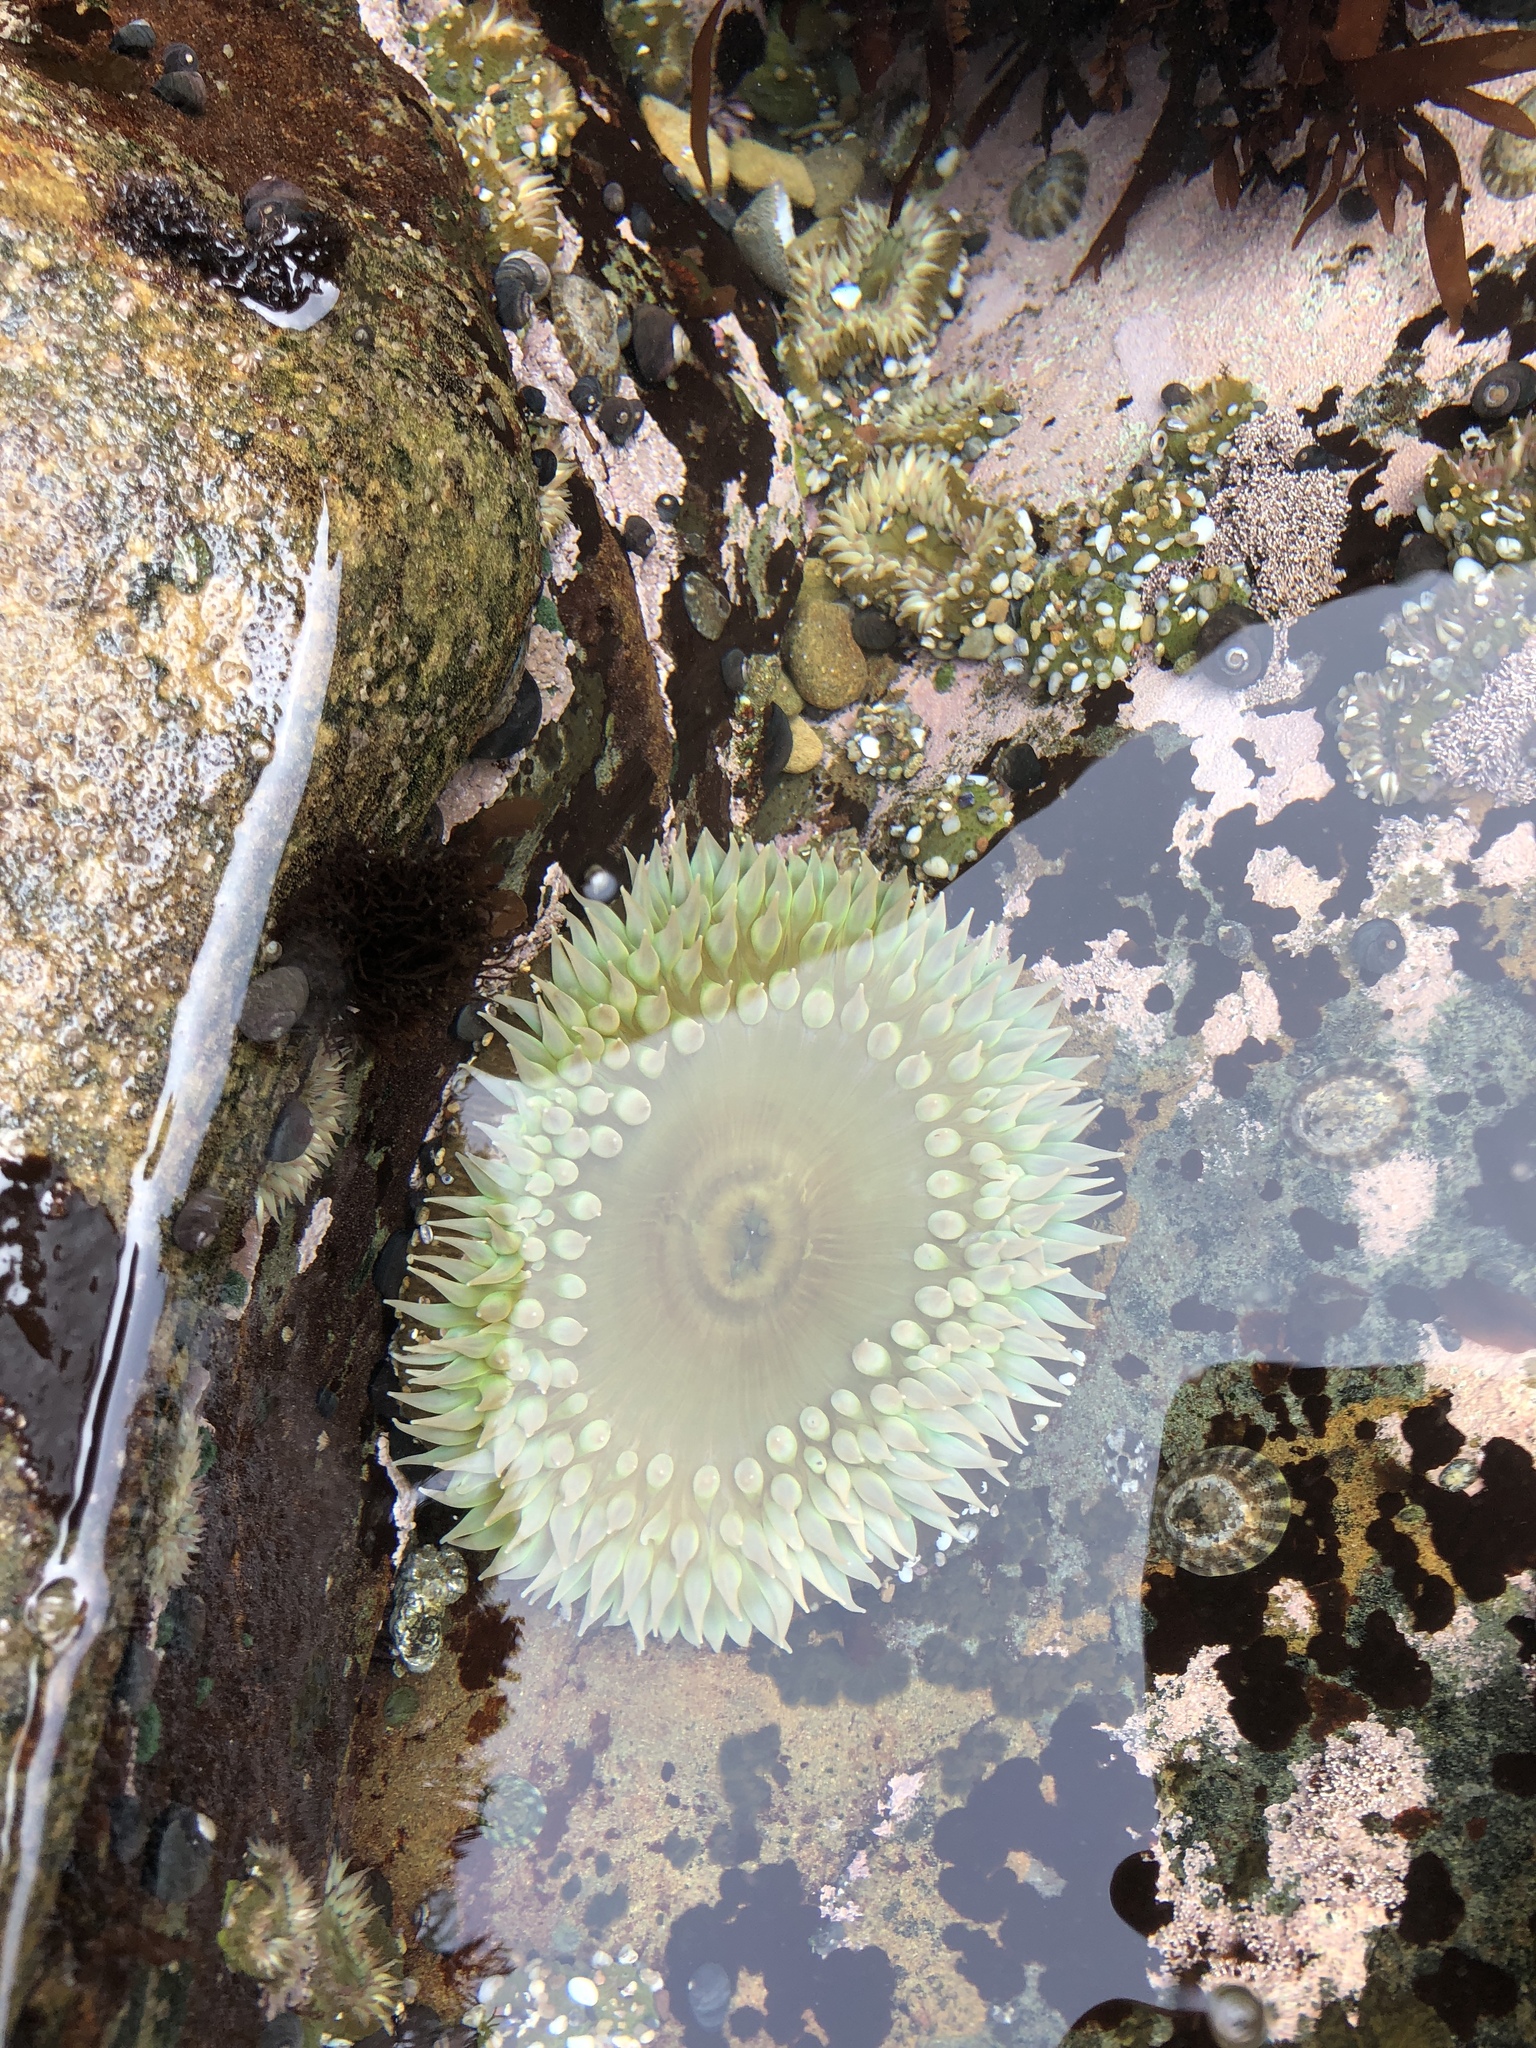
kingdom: Animalia
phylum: Cnidaria
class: Anthozoa
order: Actiniaria
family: Actiniidae
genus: Anthopleura
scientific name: Anthopleura xanthogrammica
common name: Giant green anemone
